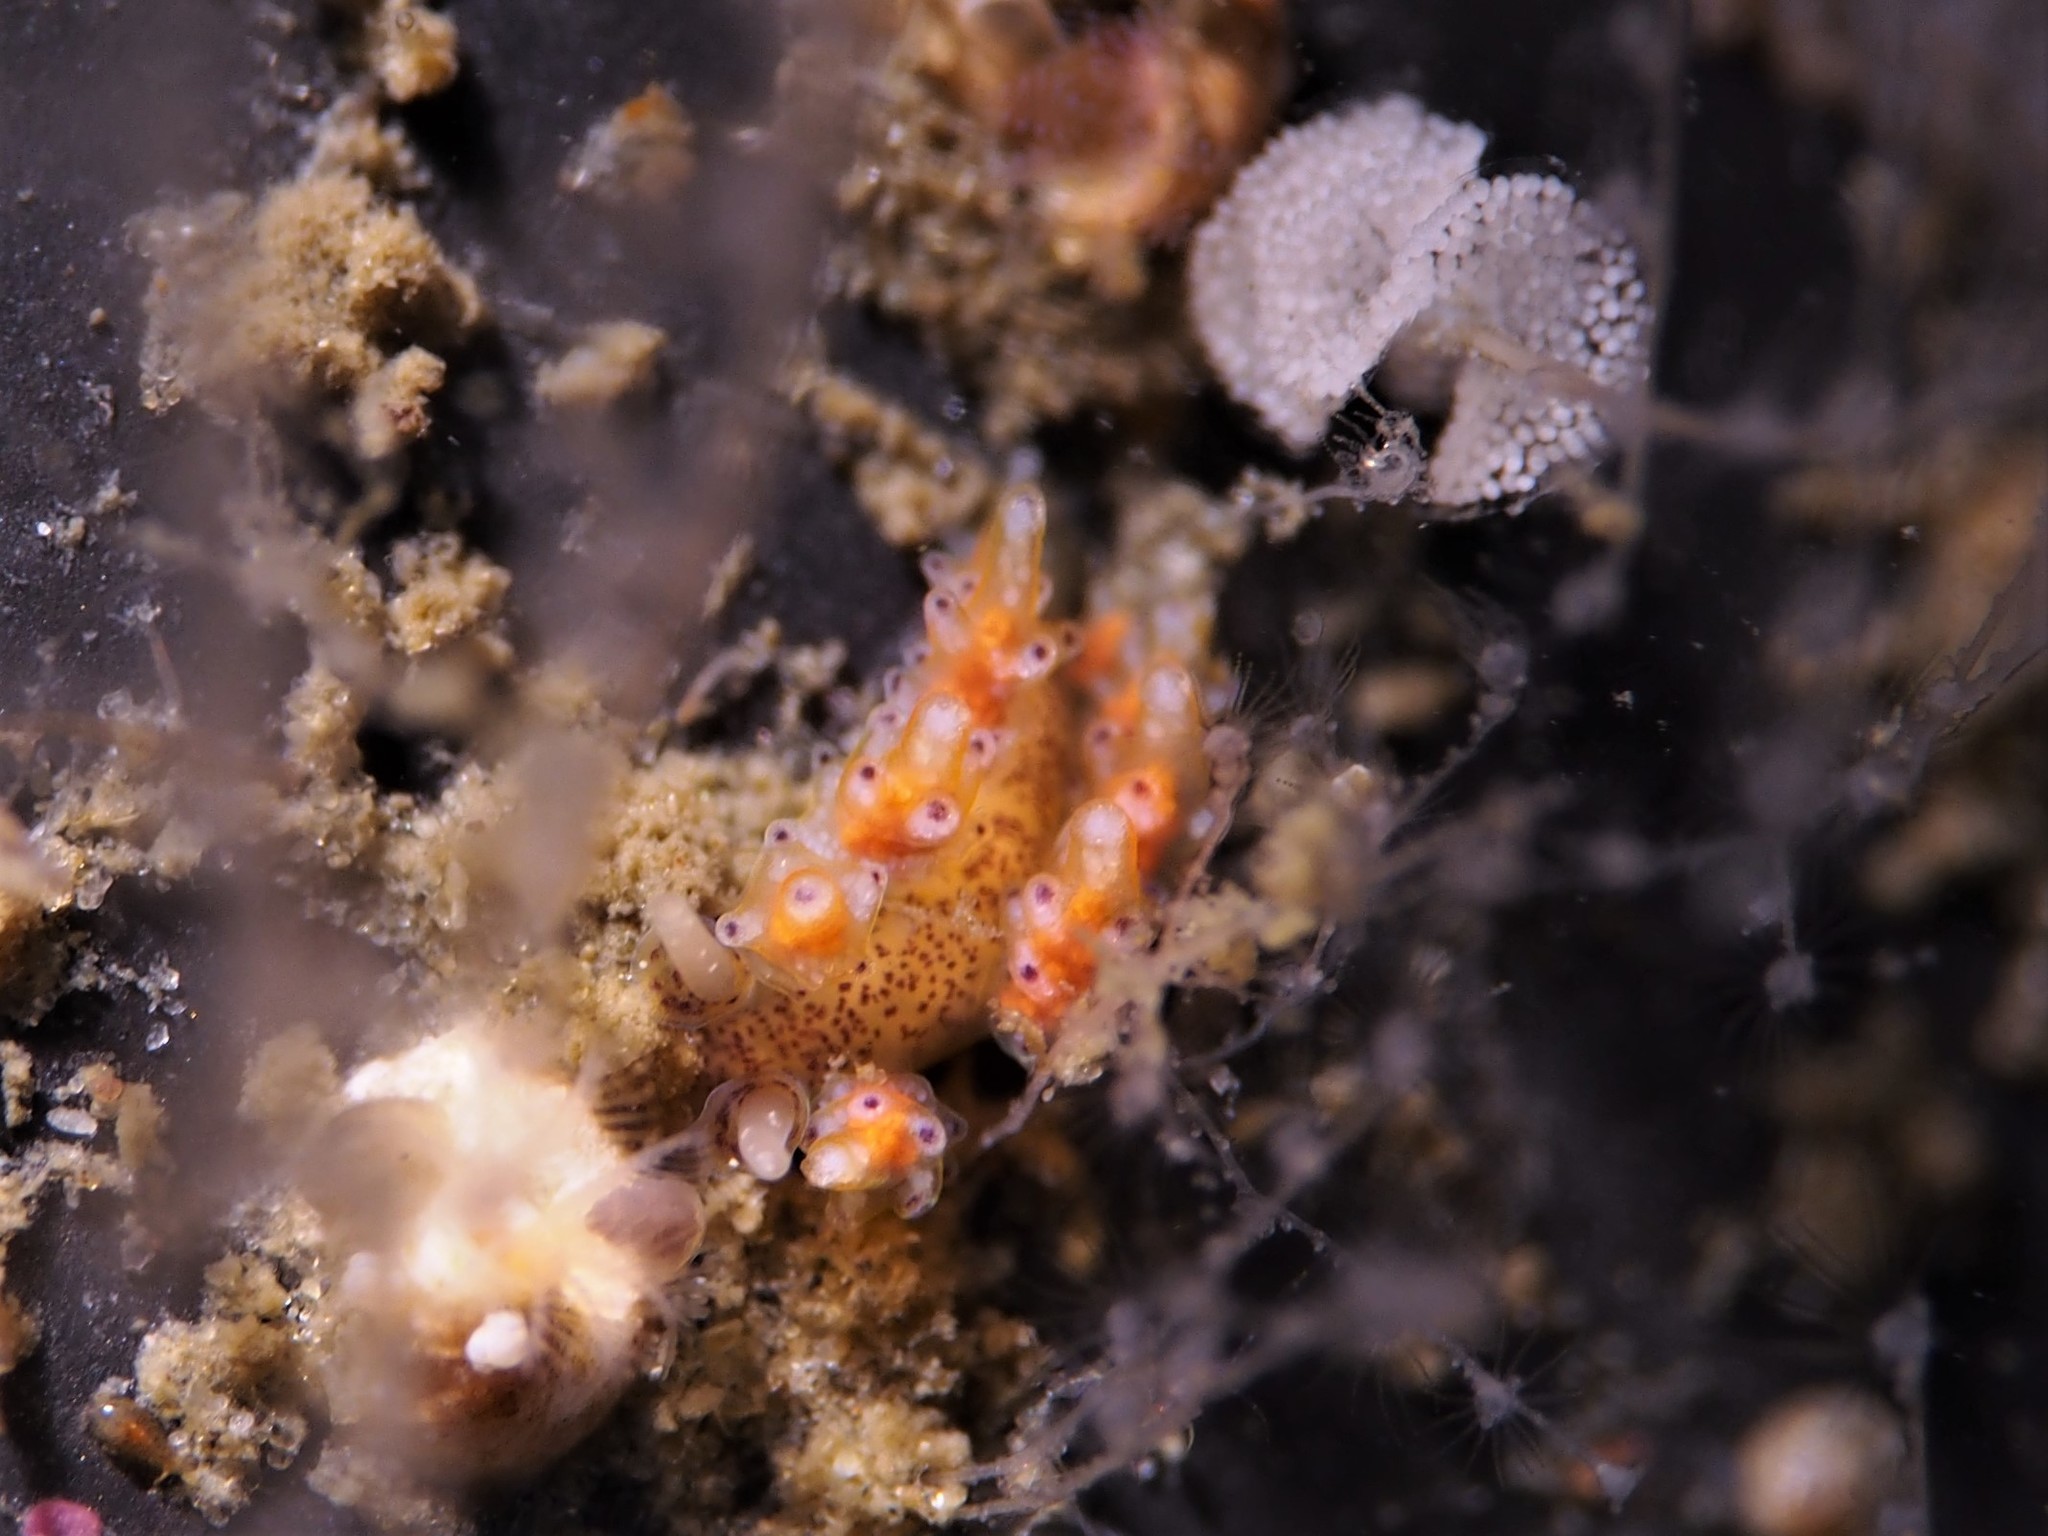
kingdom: Animalia
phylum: Mollusca
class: Gastropoda
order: Nudibranchia
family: Dotidae
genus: Doto
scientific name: Doto maculata
